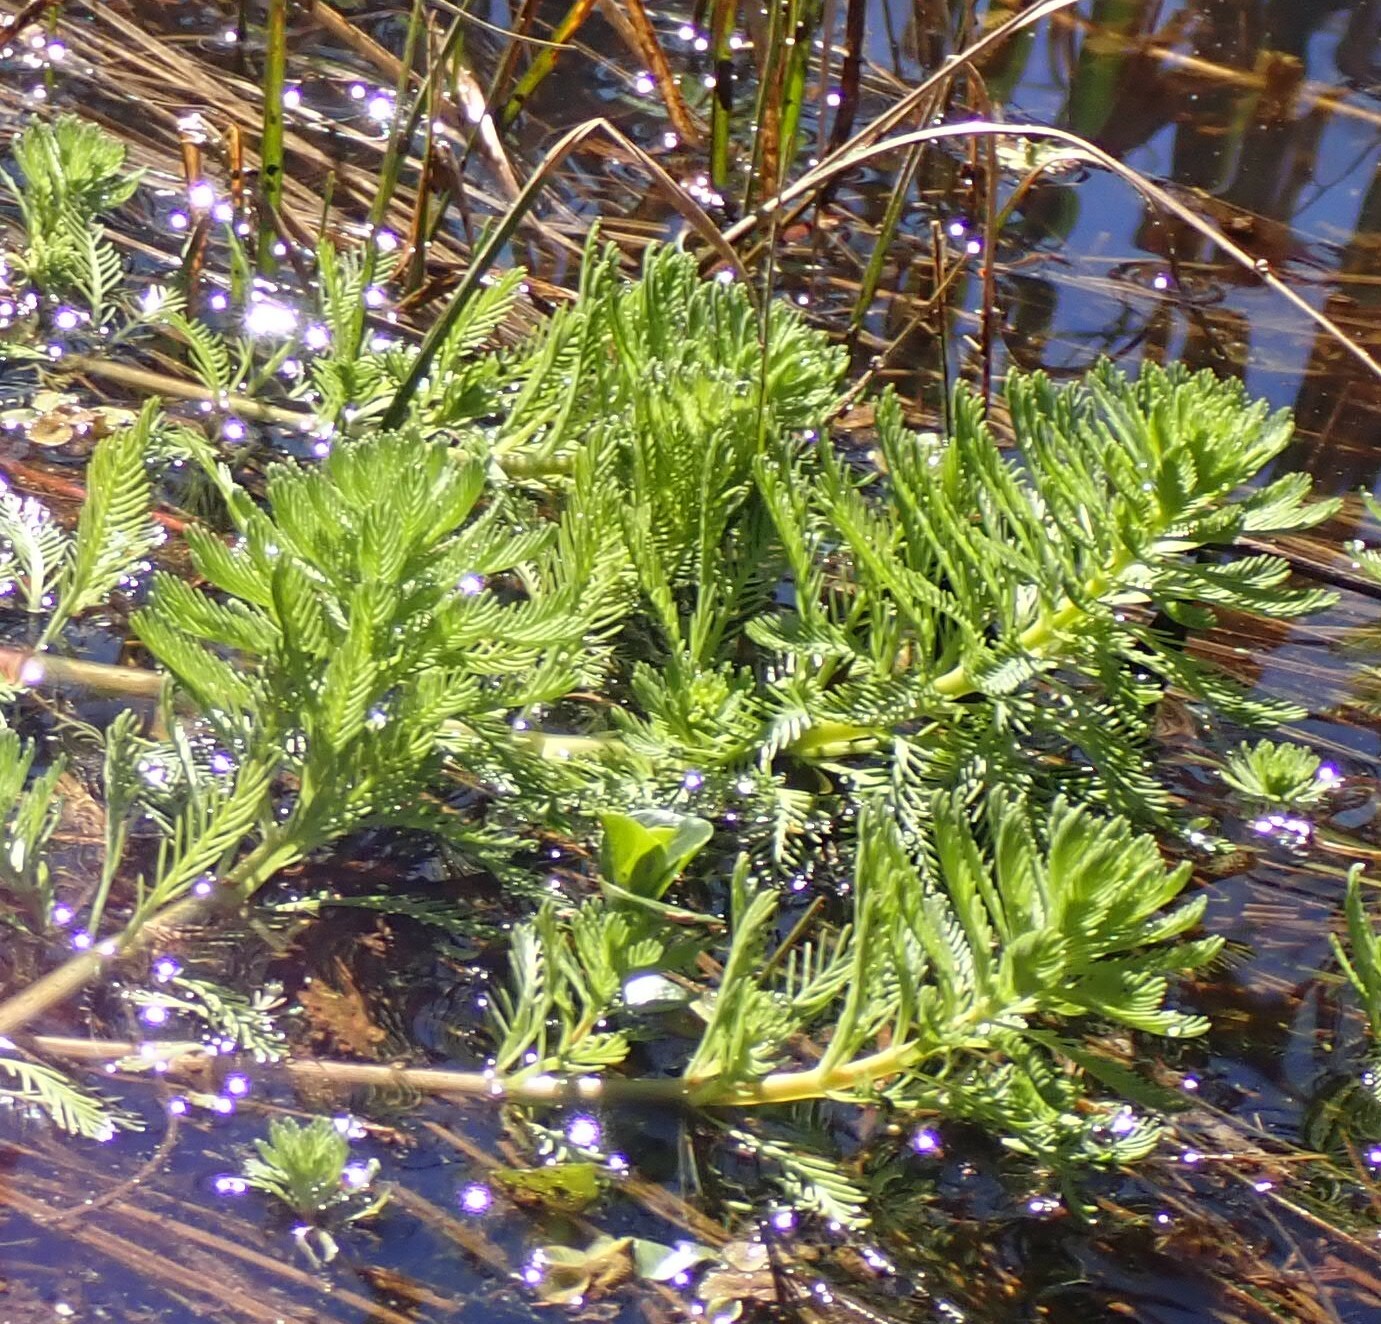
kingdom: Plantae
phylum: Tracheophyta
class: Magnoliopsida
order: Saxifragales
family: Haloragaceae
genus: Myriophyllum
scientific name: Myriophyllum aquaticum
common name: Parrot's feather
